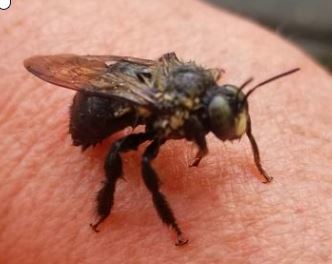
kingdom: Animalia
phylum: Arthropoda
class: Insecta
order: Hymenoptera
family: Apidae
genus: Xylocopa
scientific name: Xylocopa virginica
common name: Carpenter bee
